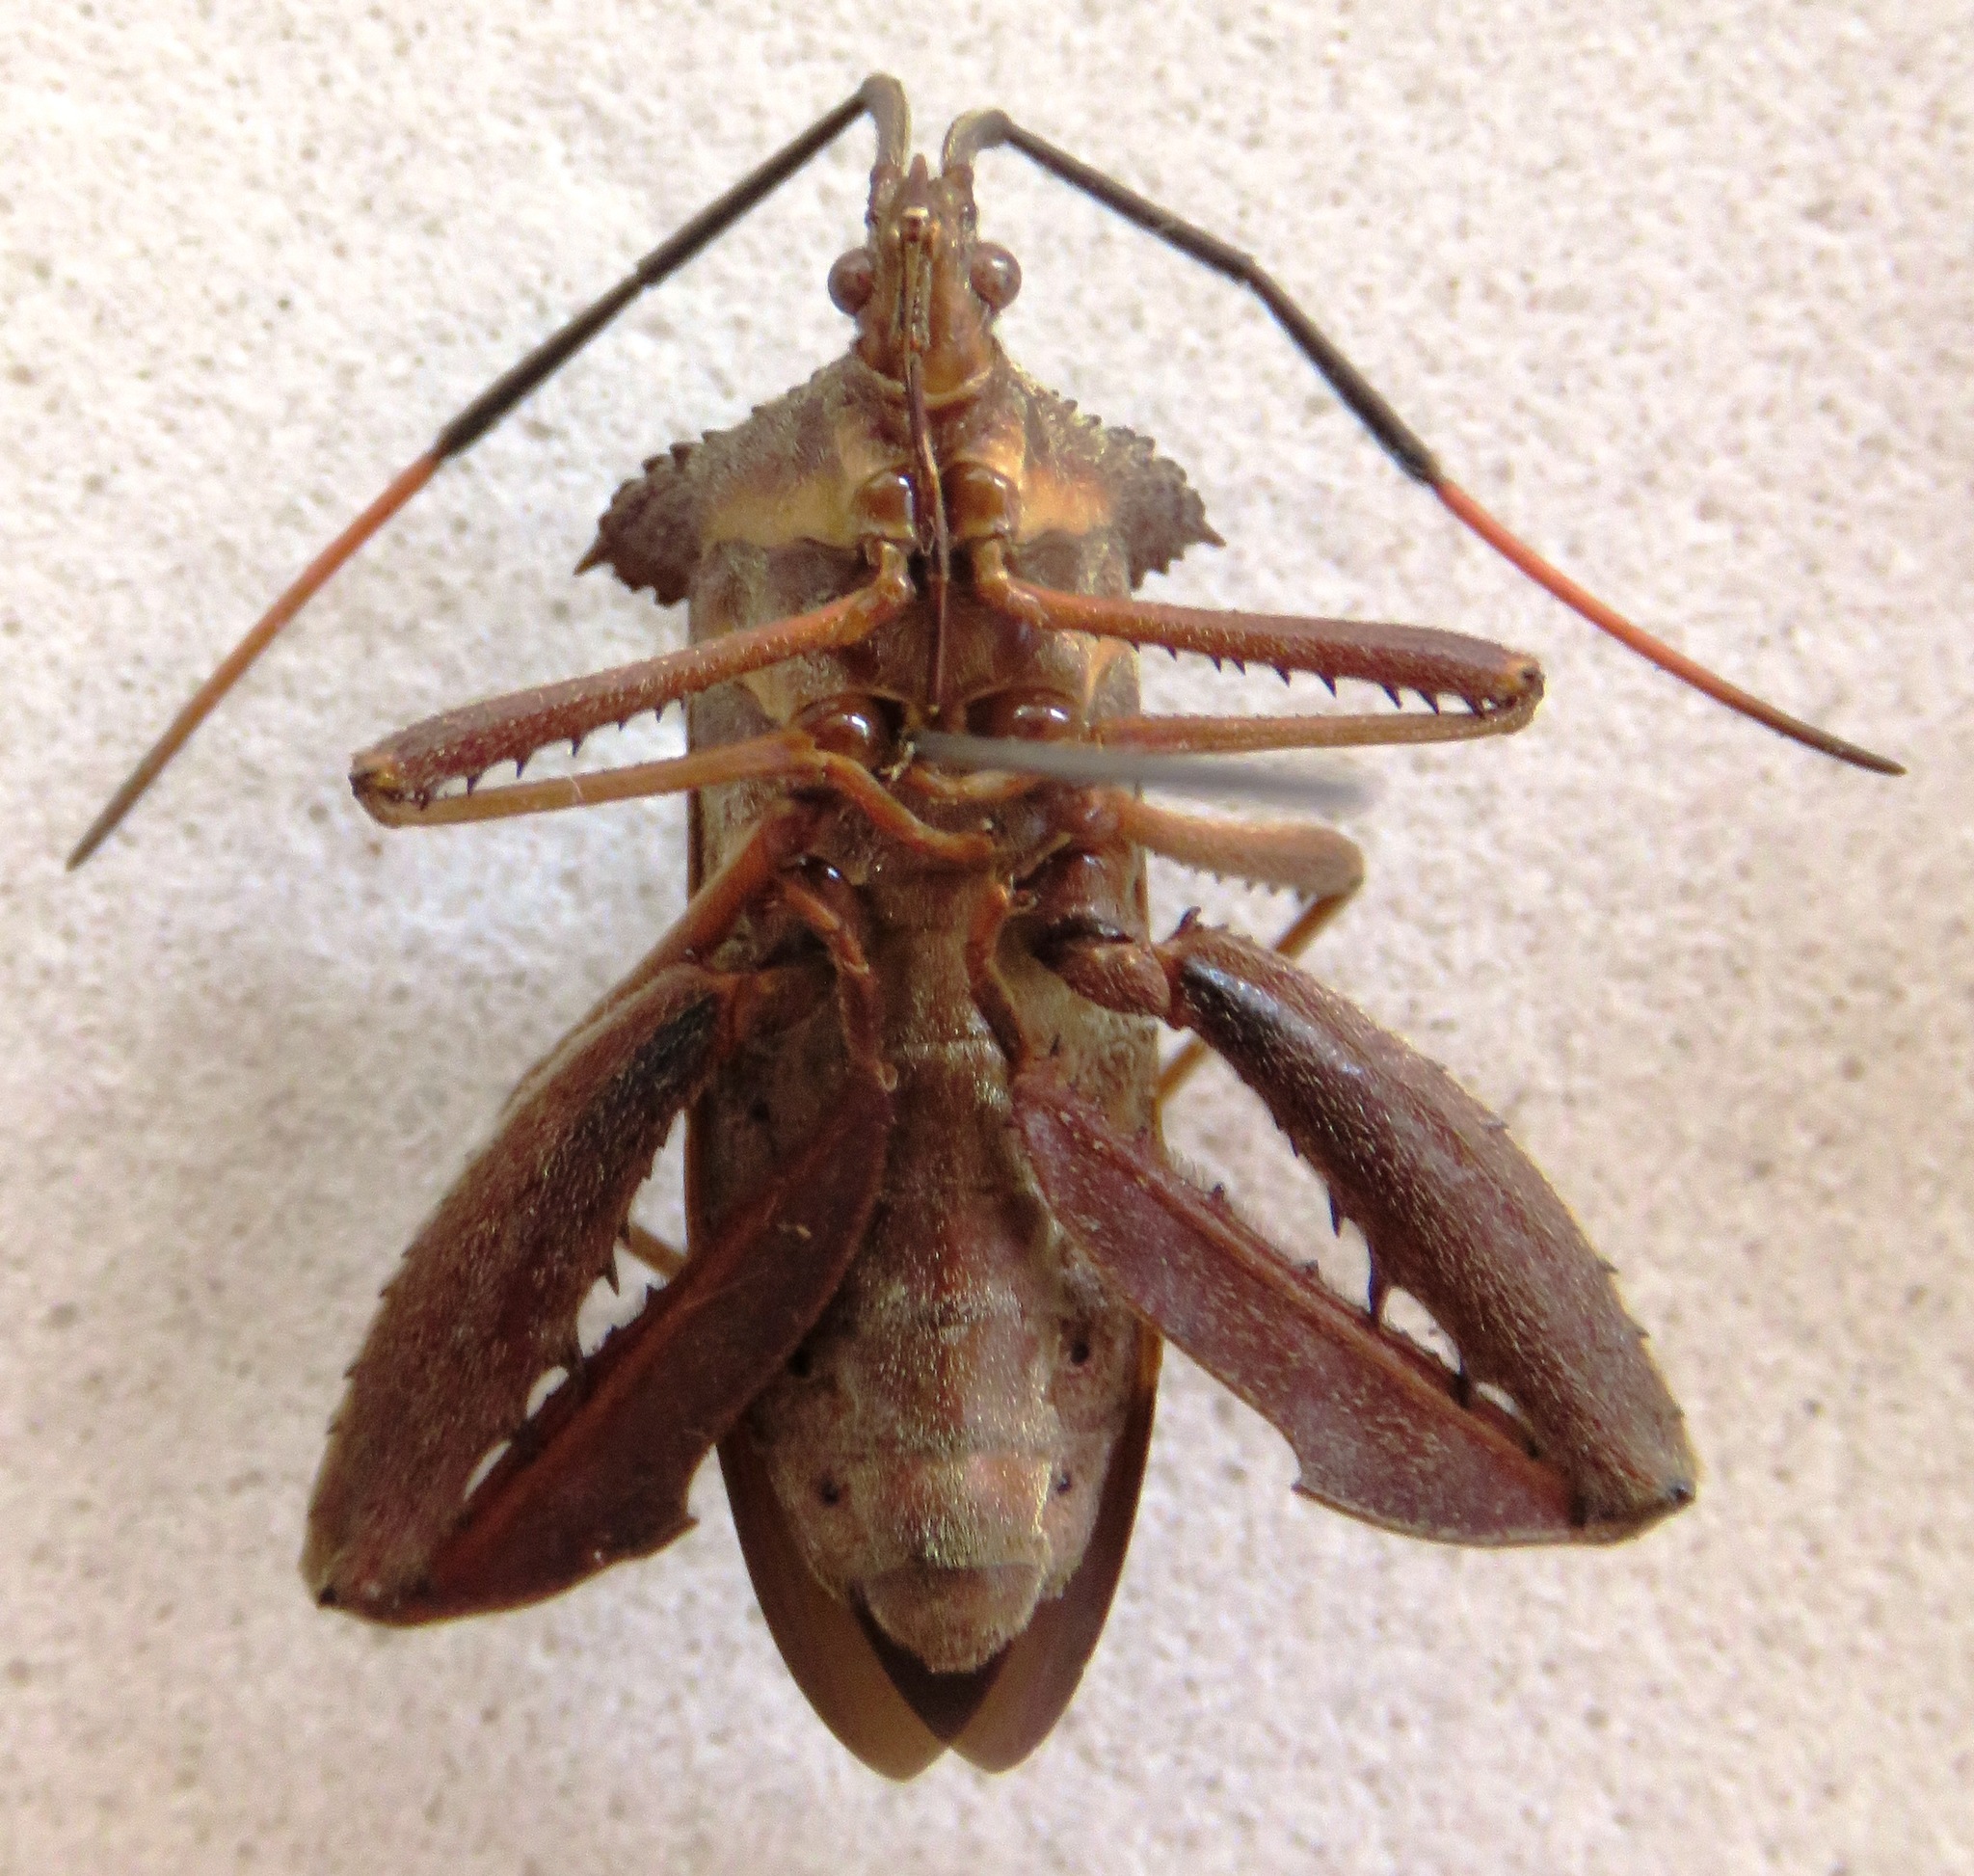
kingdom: Animalia
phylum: Arthropoda
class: Insecta
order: Hemiptera
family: Coreidae
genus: Acanthocephala
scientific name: Acanthocephala heissi
